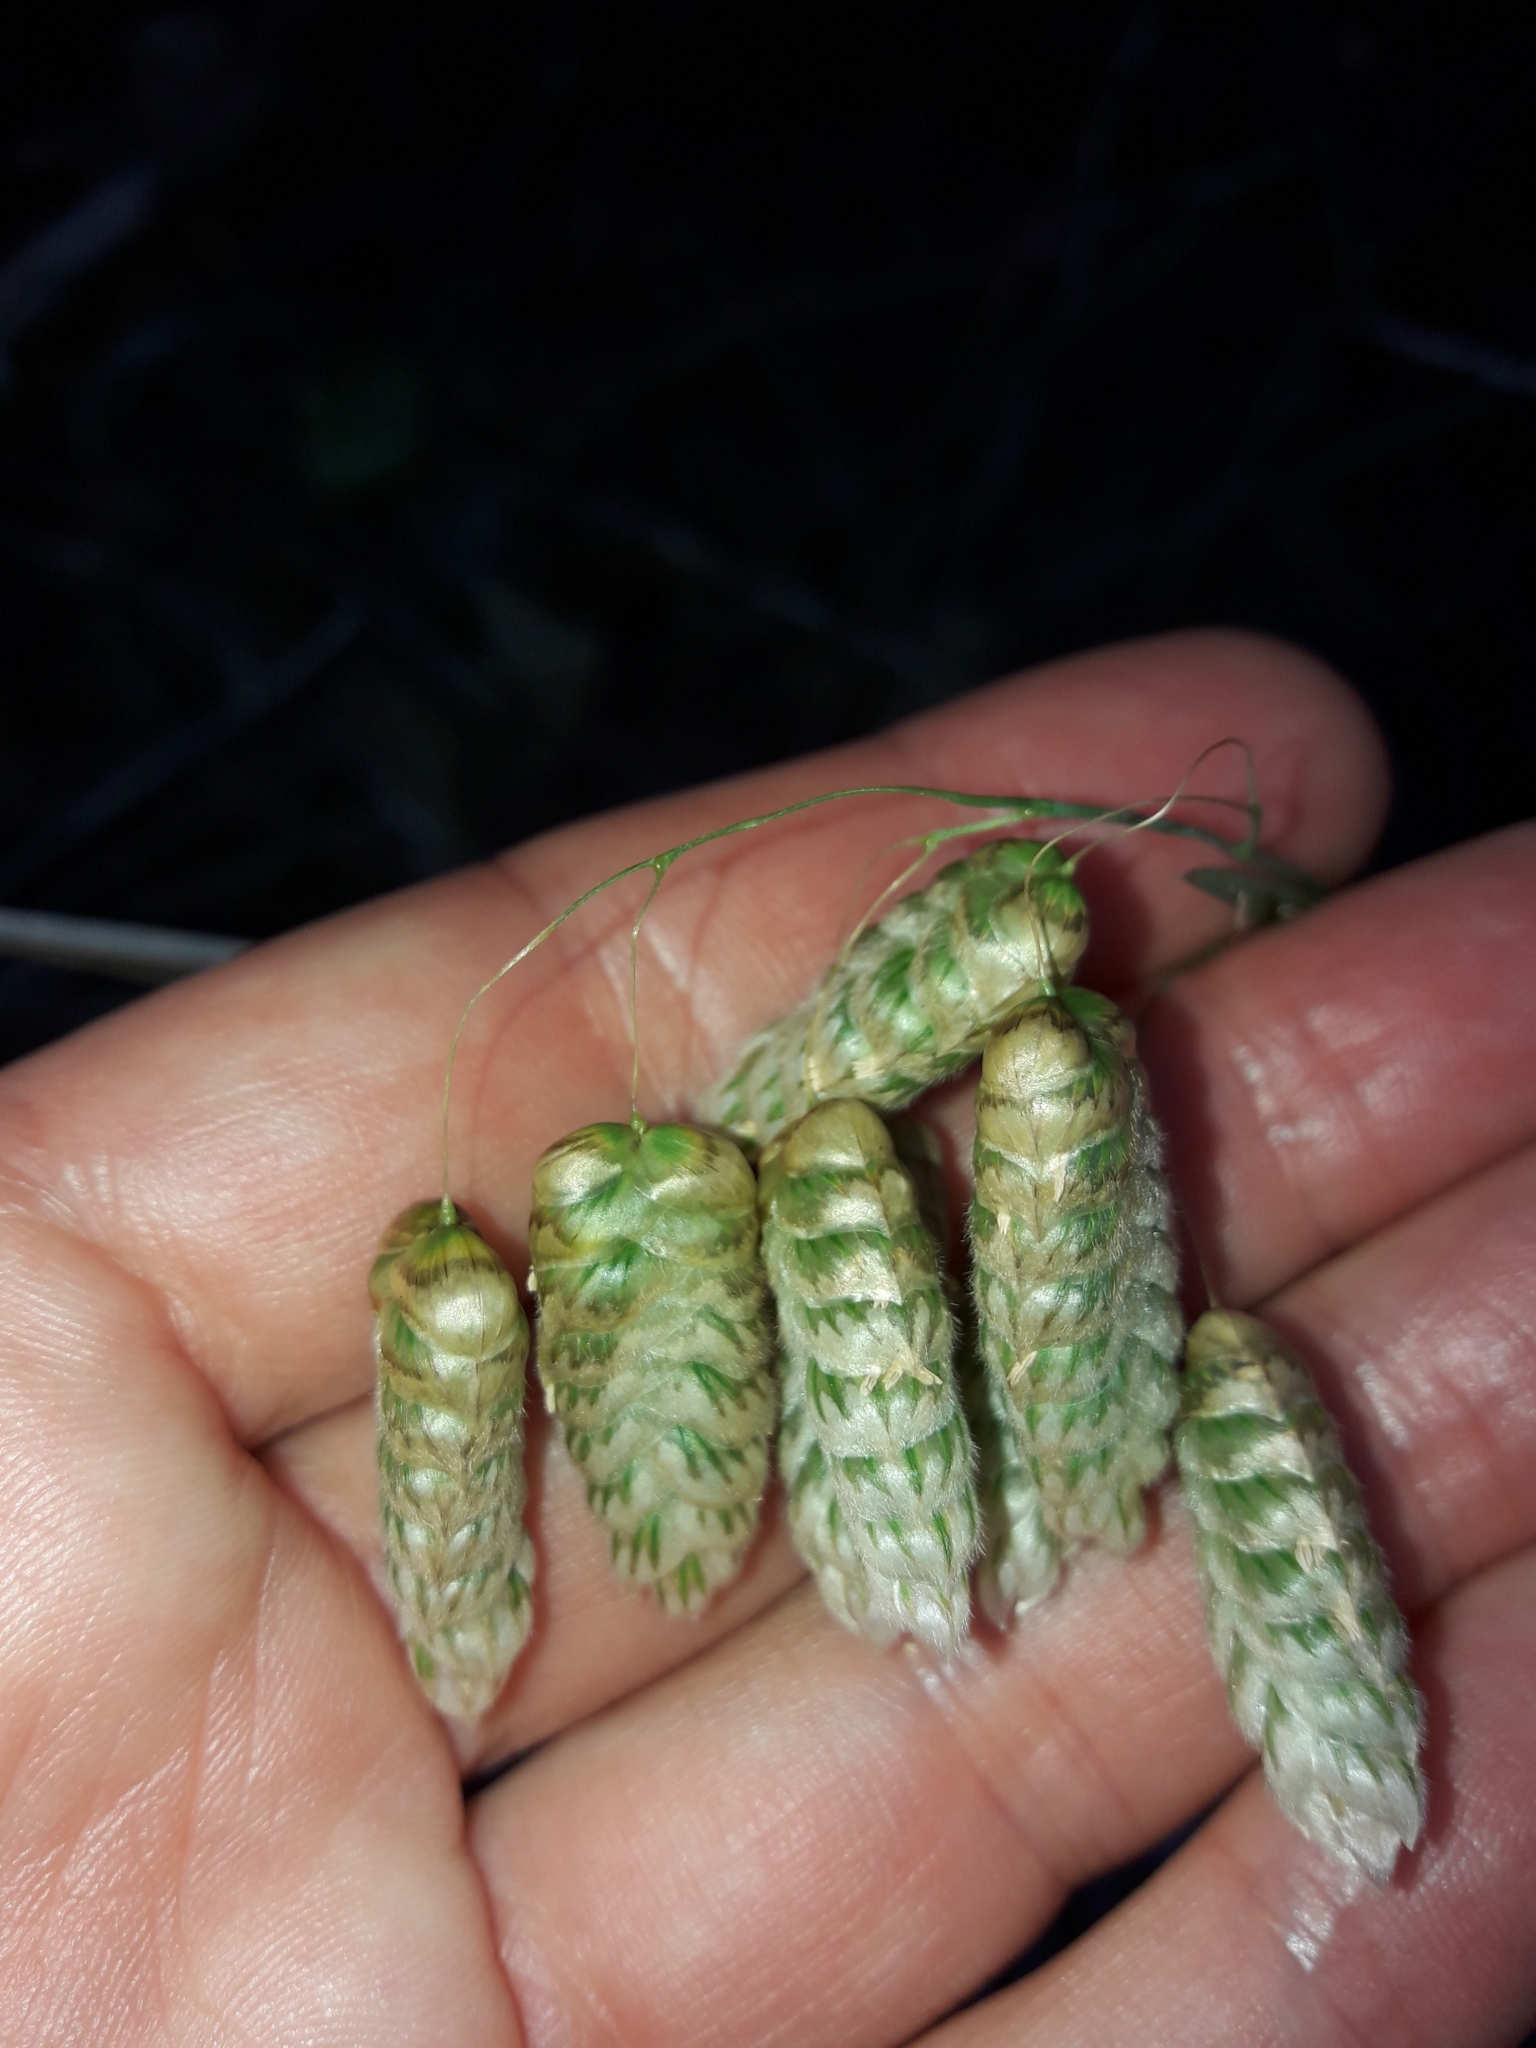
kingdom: Plantae
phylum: Tracheophyta
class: Liliopsida
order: Poales
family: Poaceae
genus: Briza
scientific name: Briza maxima
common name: Big quakinggrass
